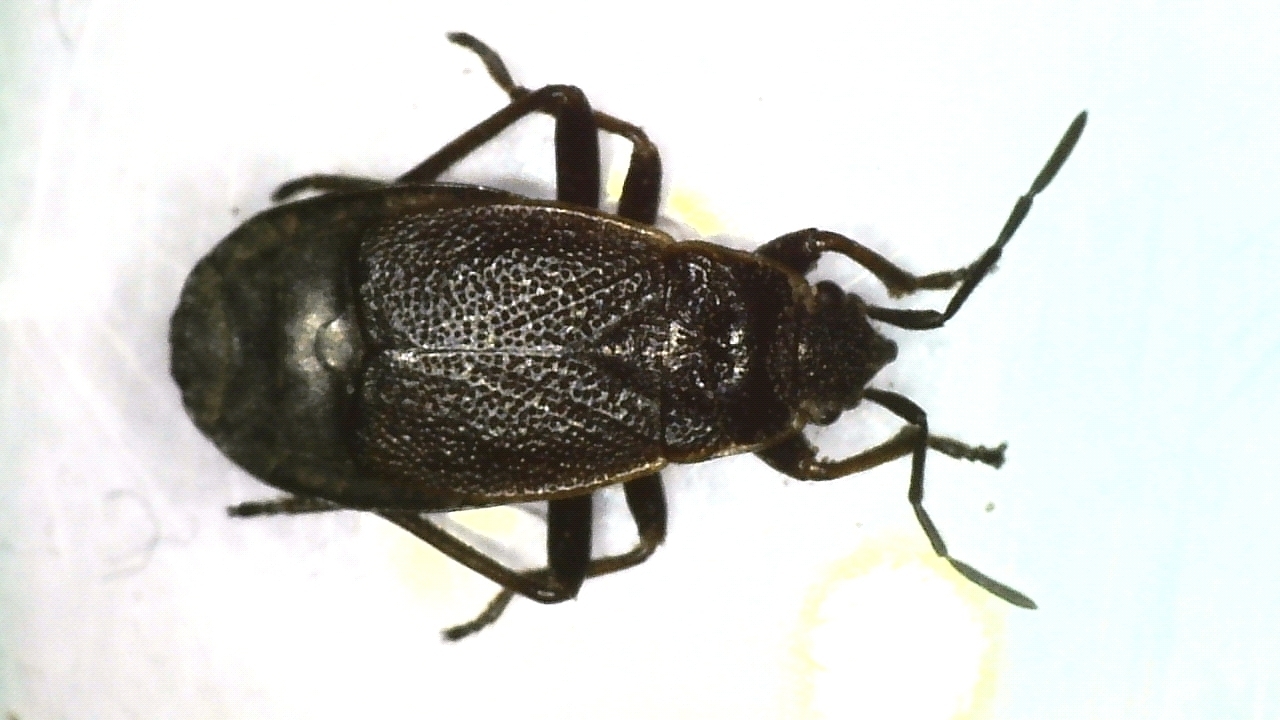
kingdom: Animalia
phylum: Arthropoda
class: Insecta
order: Hemiptera
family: Pyrrhocoridae
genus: Pyrrhocoris
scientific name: Pyrrhocoris marginatus
